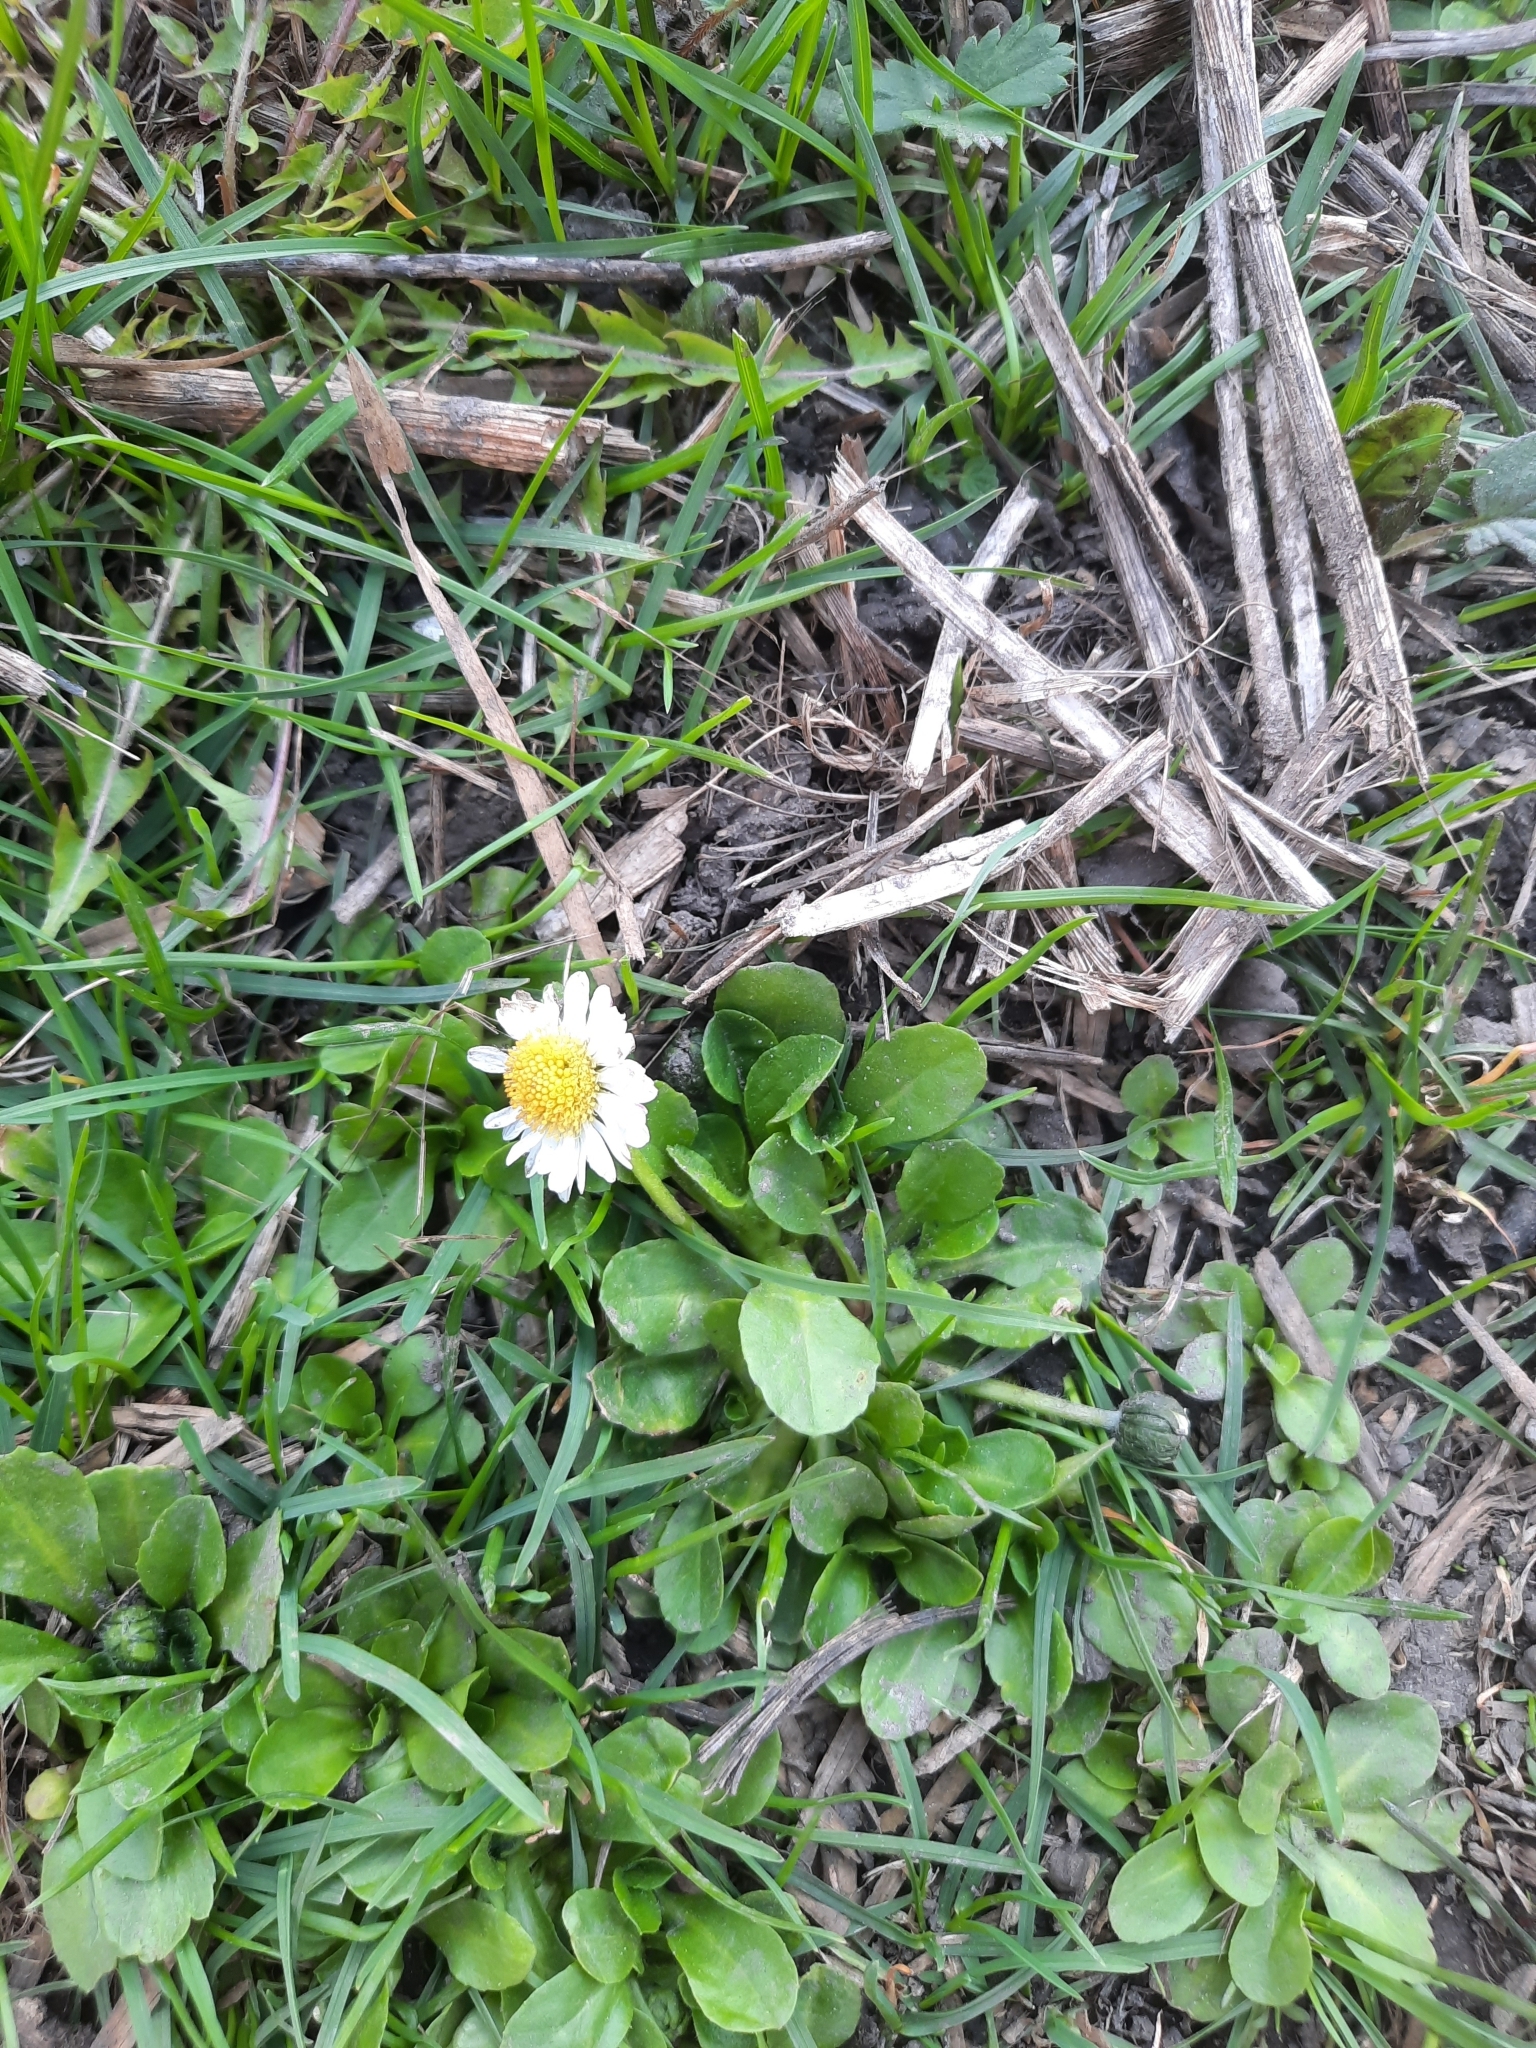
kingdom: Plantae
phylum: Tracheophyta
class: Magnoliopsida
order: Asterales
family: Asteraceae
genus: Bellis
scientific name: Bellis perennis
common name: Lawndaisy
